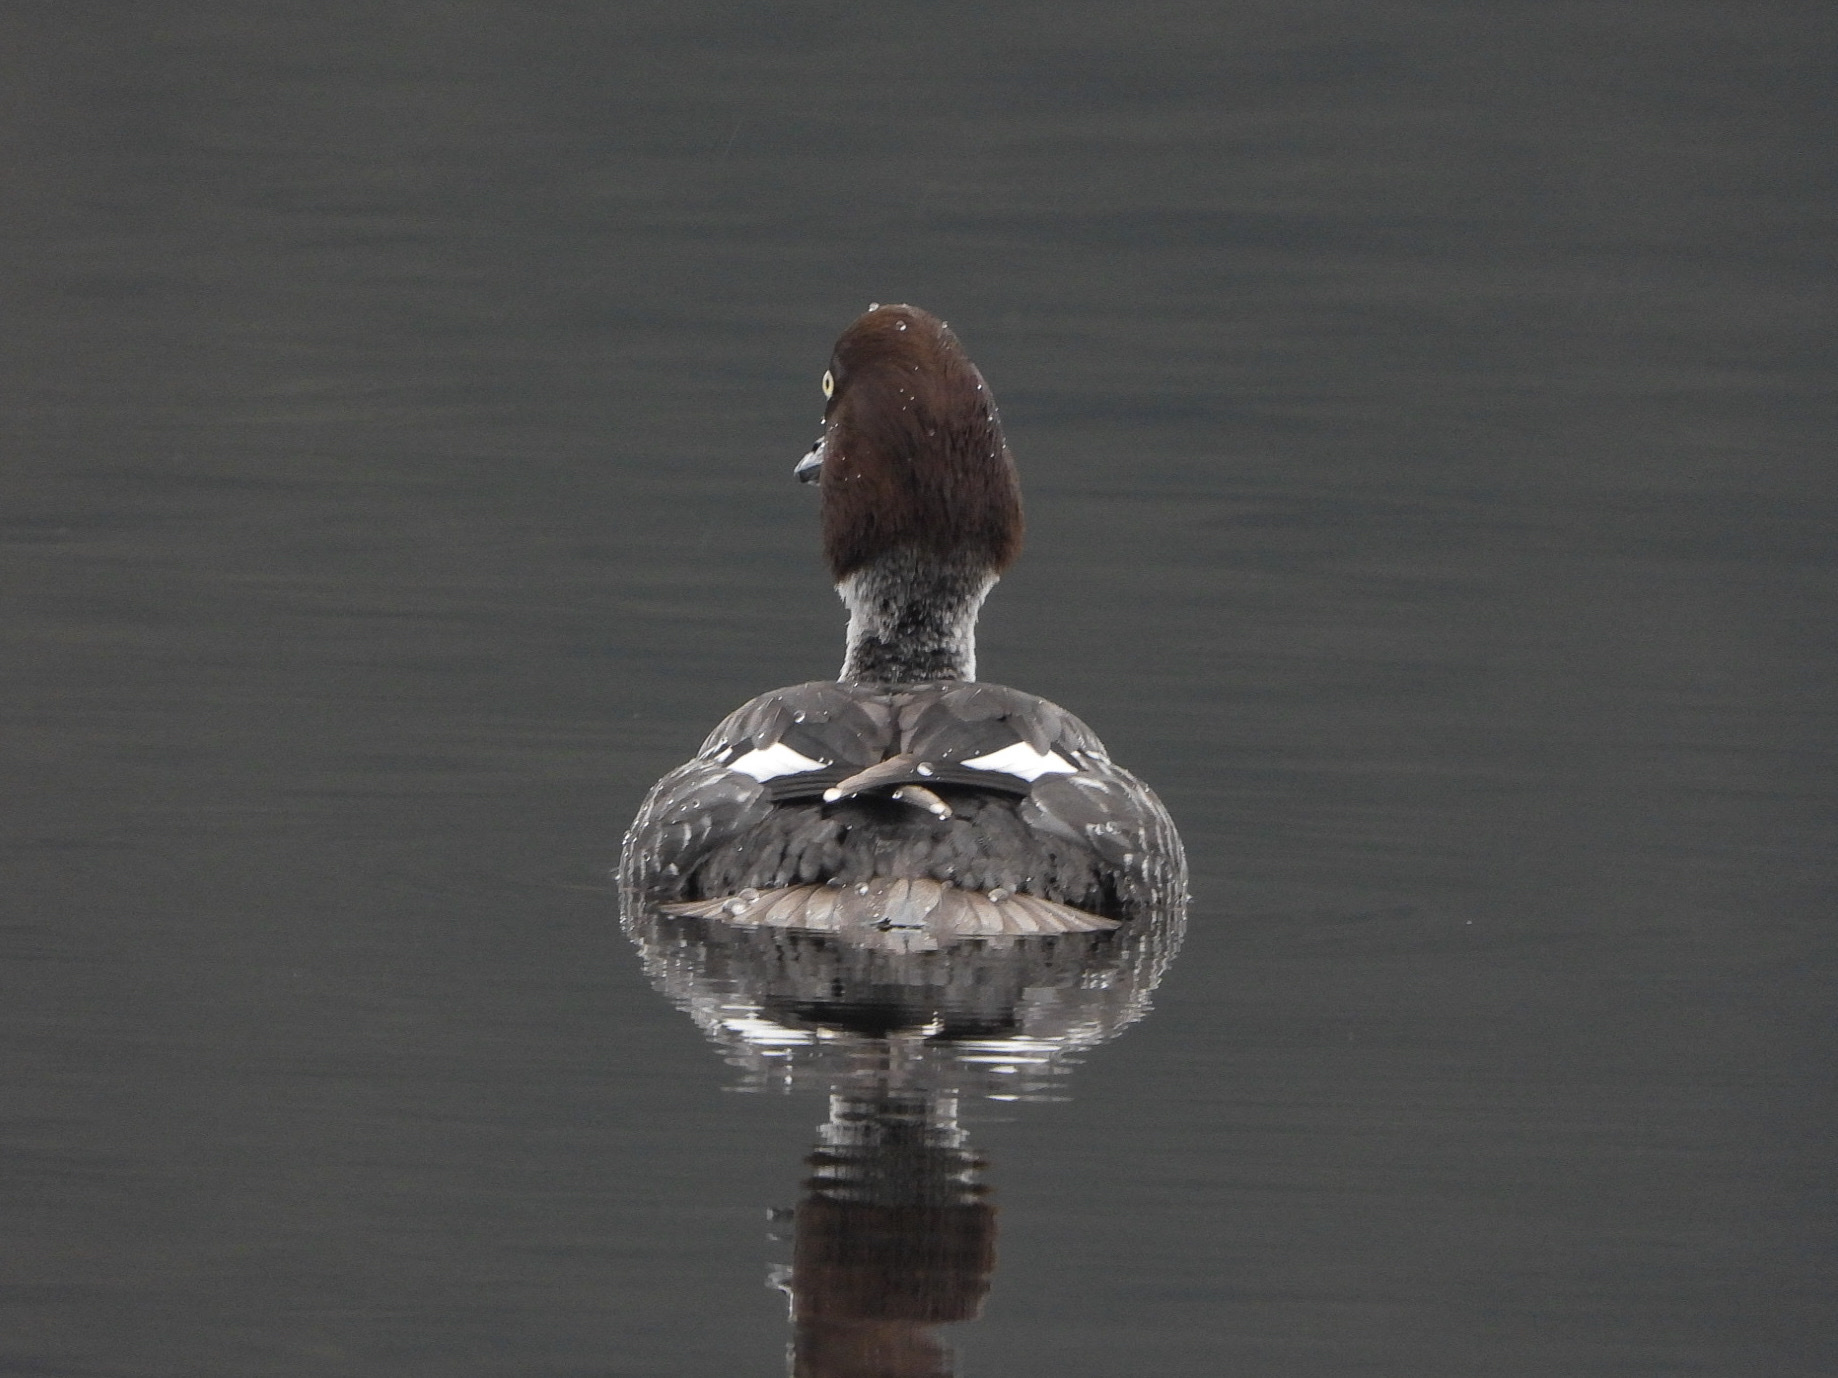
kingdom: Animalia
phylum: Chordata
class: Aves
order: Anseriformes
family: Anatidae
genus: Bucephala
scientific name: Bucephala clangula
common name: Common goldeneye
